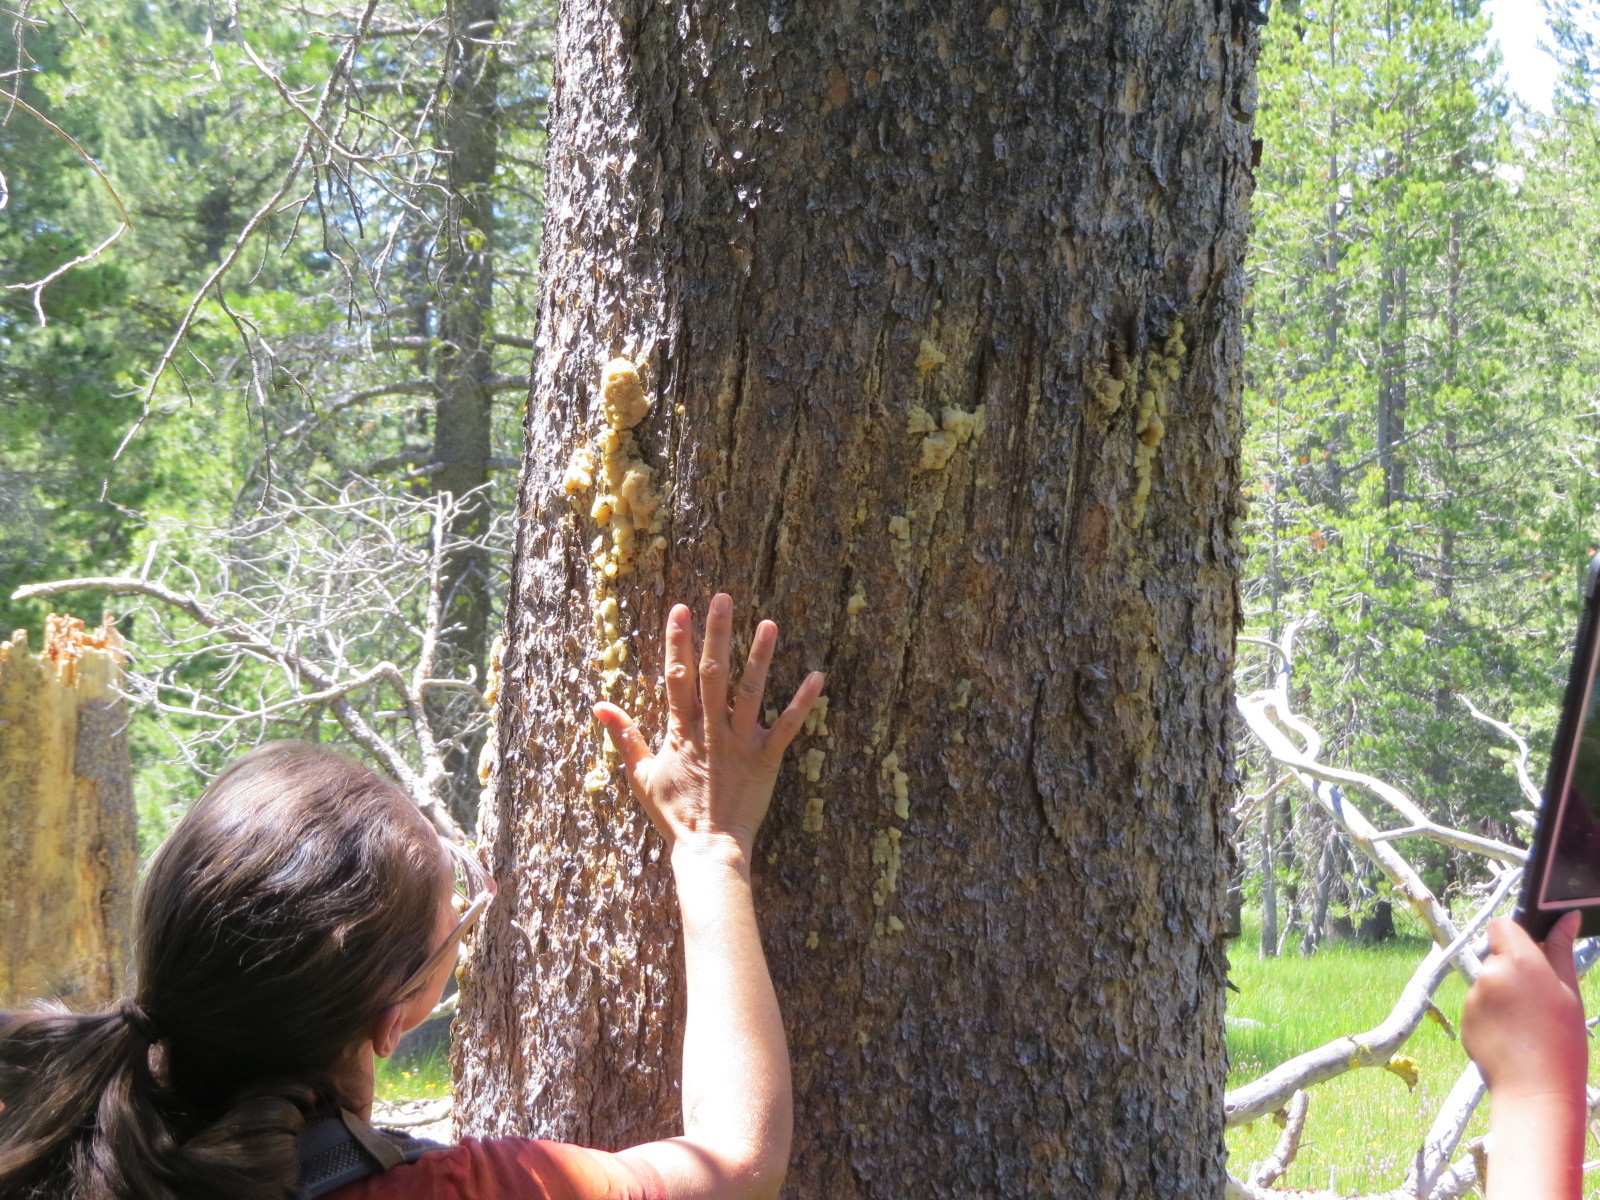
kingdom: Animalia
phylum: Chordata
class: Mammalia
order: Carnivora
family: Ursidae
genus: Ursus
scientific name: Ursus americanus
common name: American black bear
